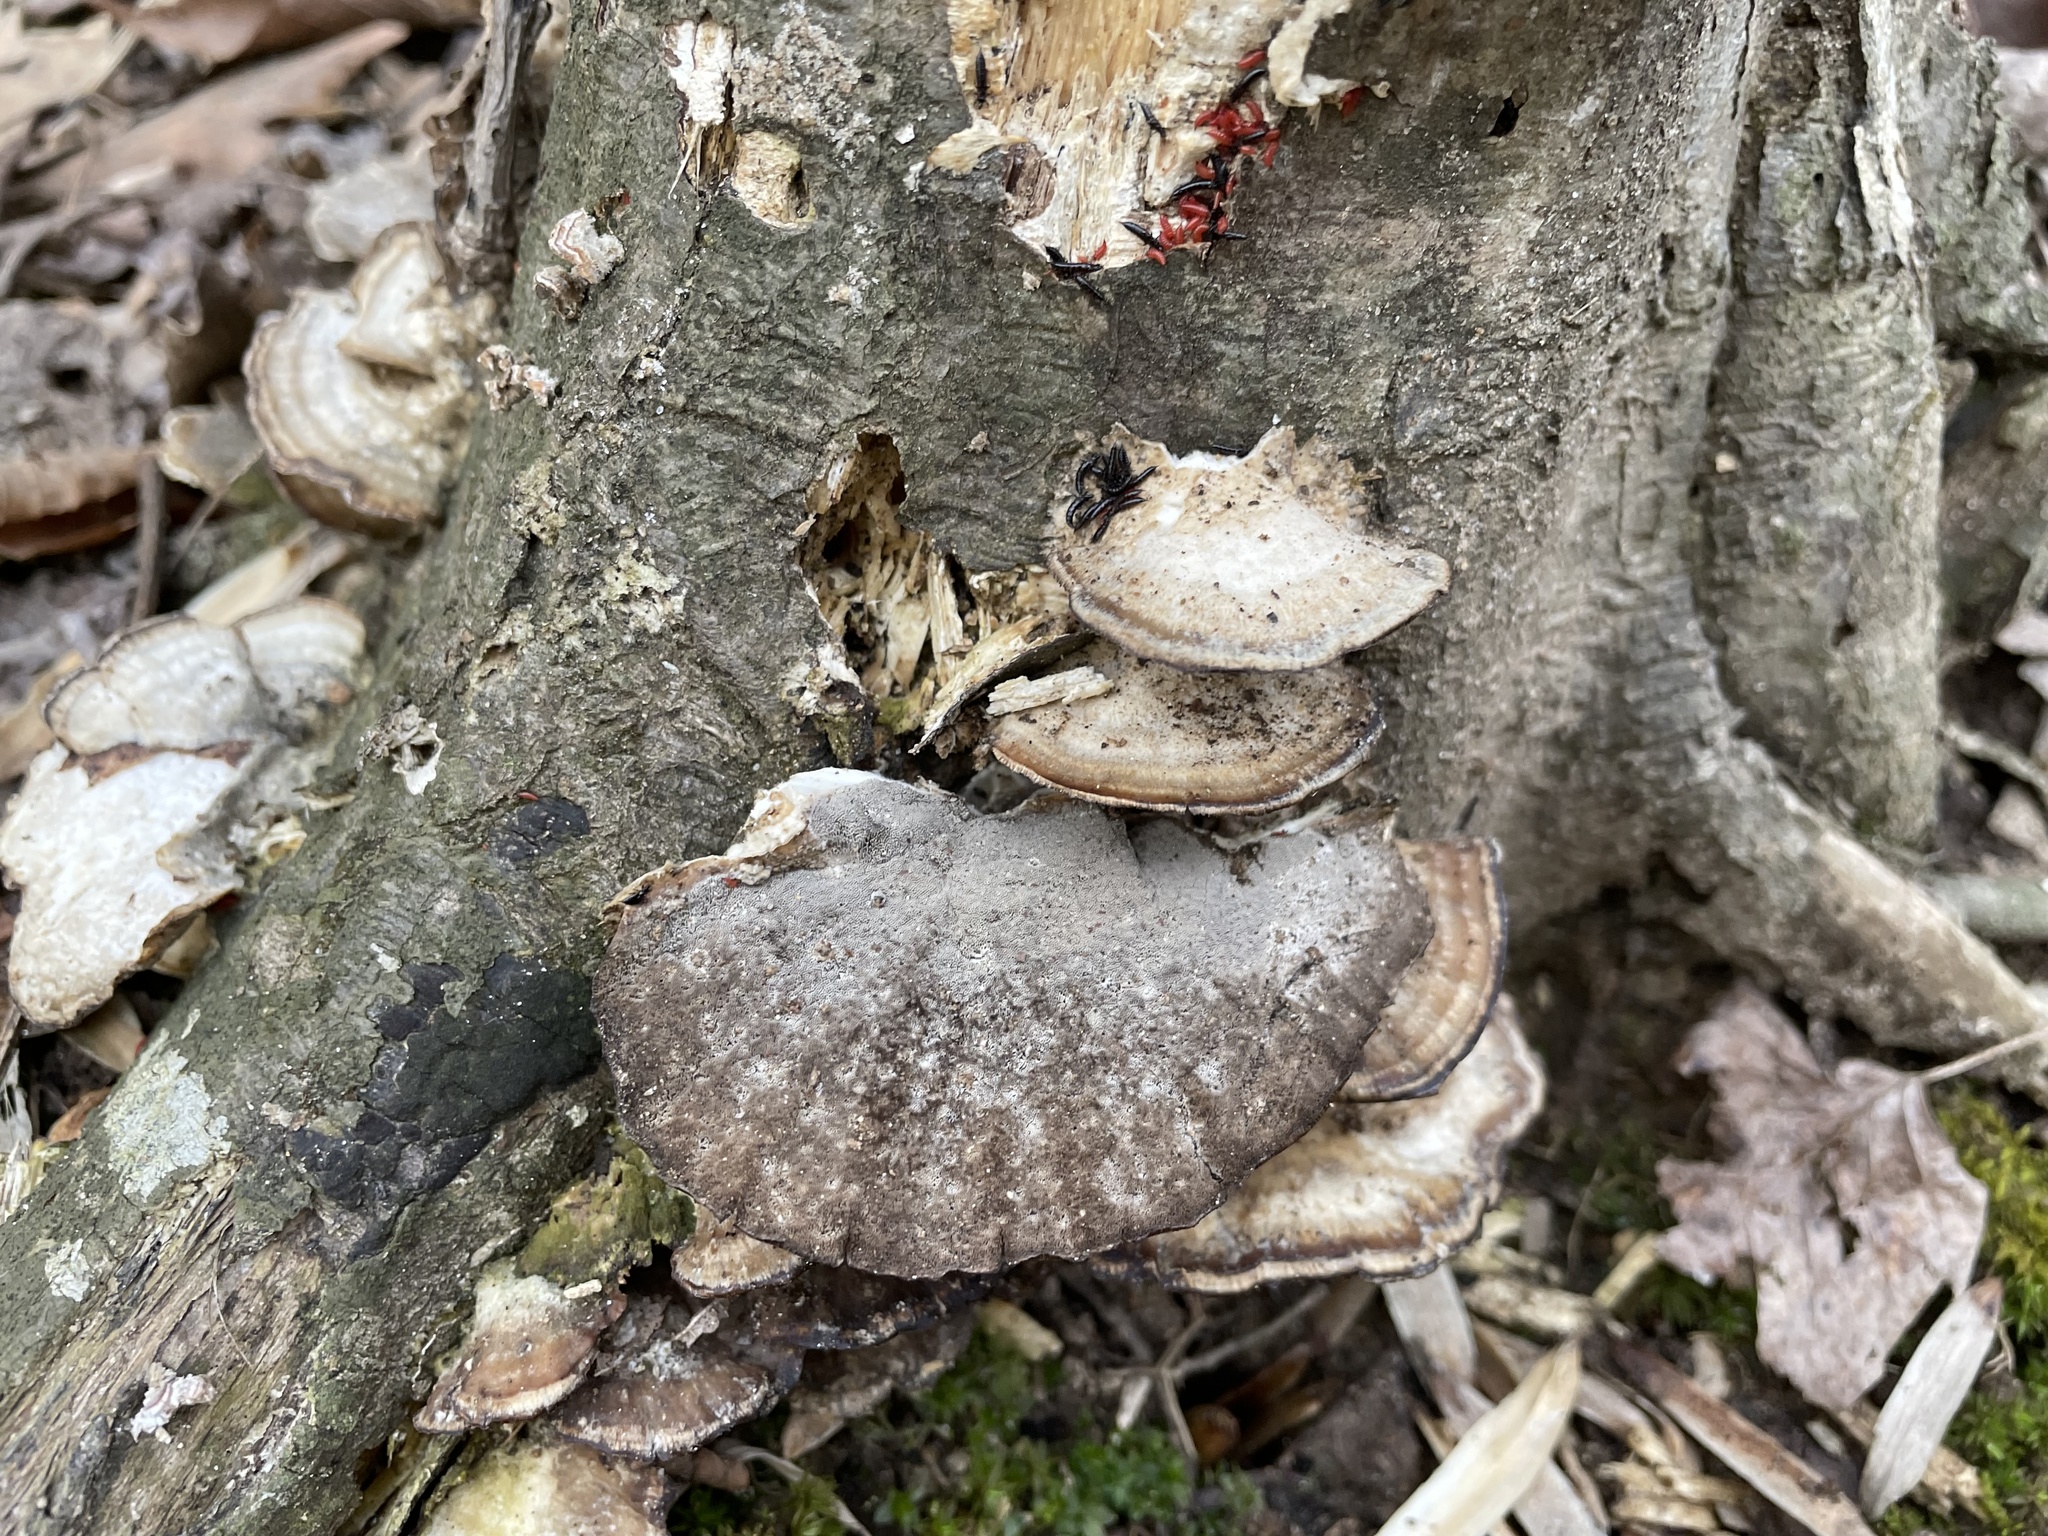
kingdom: Fungi
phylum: Basidiomycota
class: Agaricomycetes
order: Polyporales
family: Phanerochaetaceae
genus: Bjerkandera
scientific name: Bjerkandera adusta
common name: Smoky bracket
